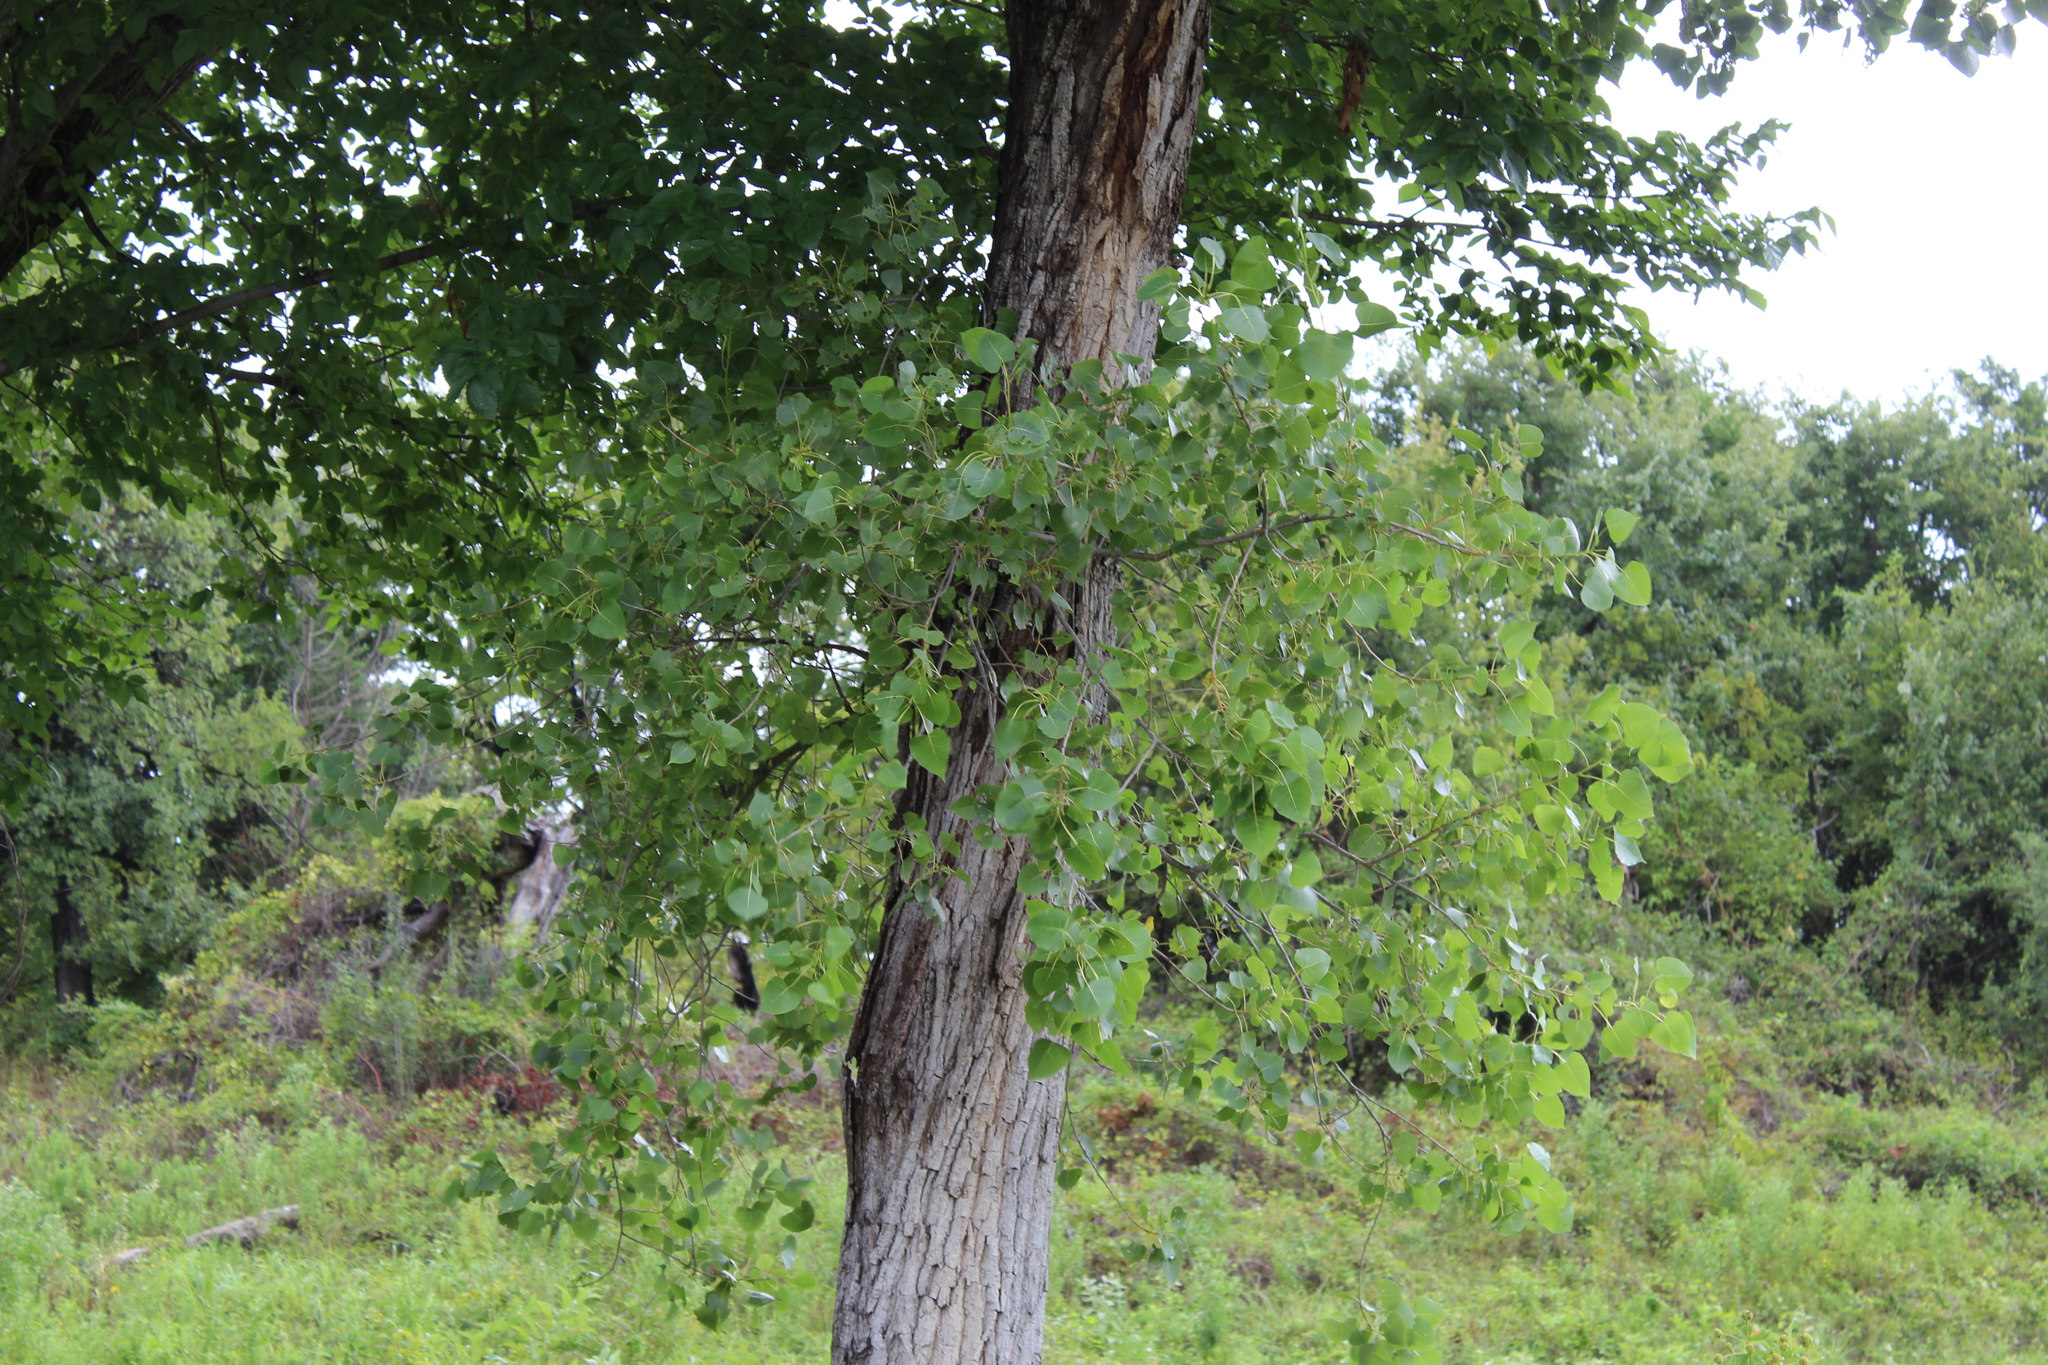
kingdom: Plantae
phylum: Tracheophyta
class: Magnoliopsida
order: Malpighiales
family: Salicaceae
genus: Populus
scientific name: Populus deltoides
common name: Eastern cottonwood
